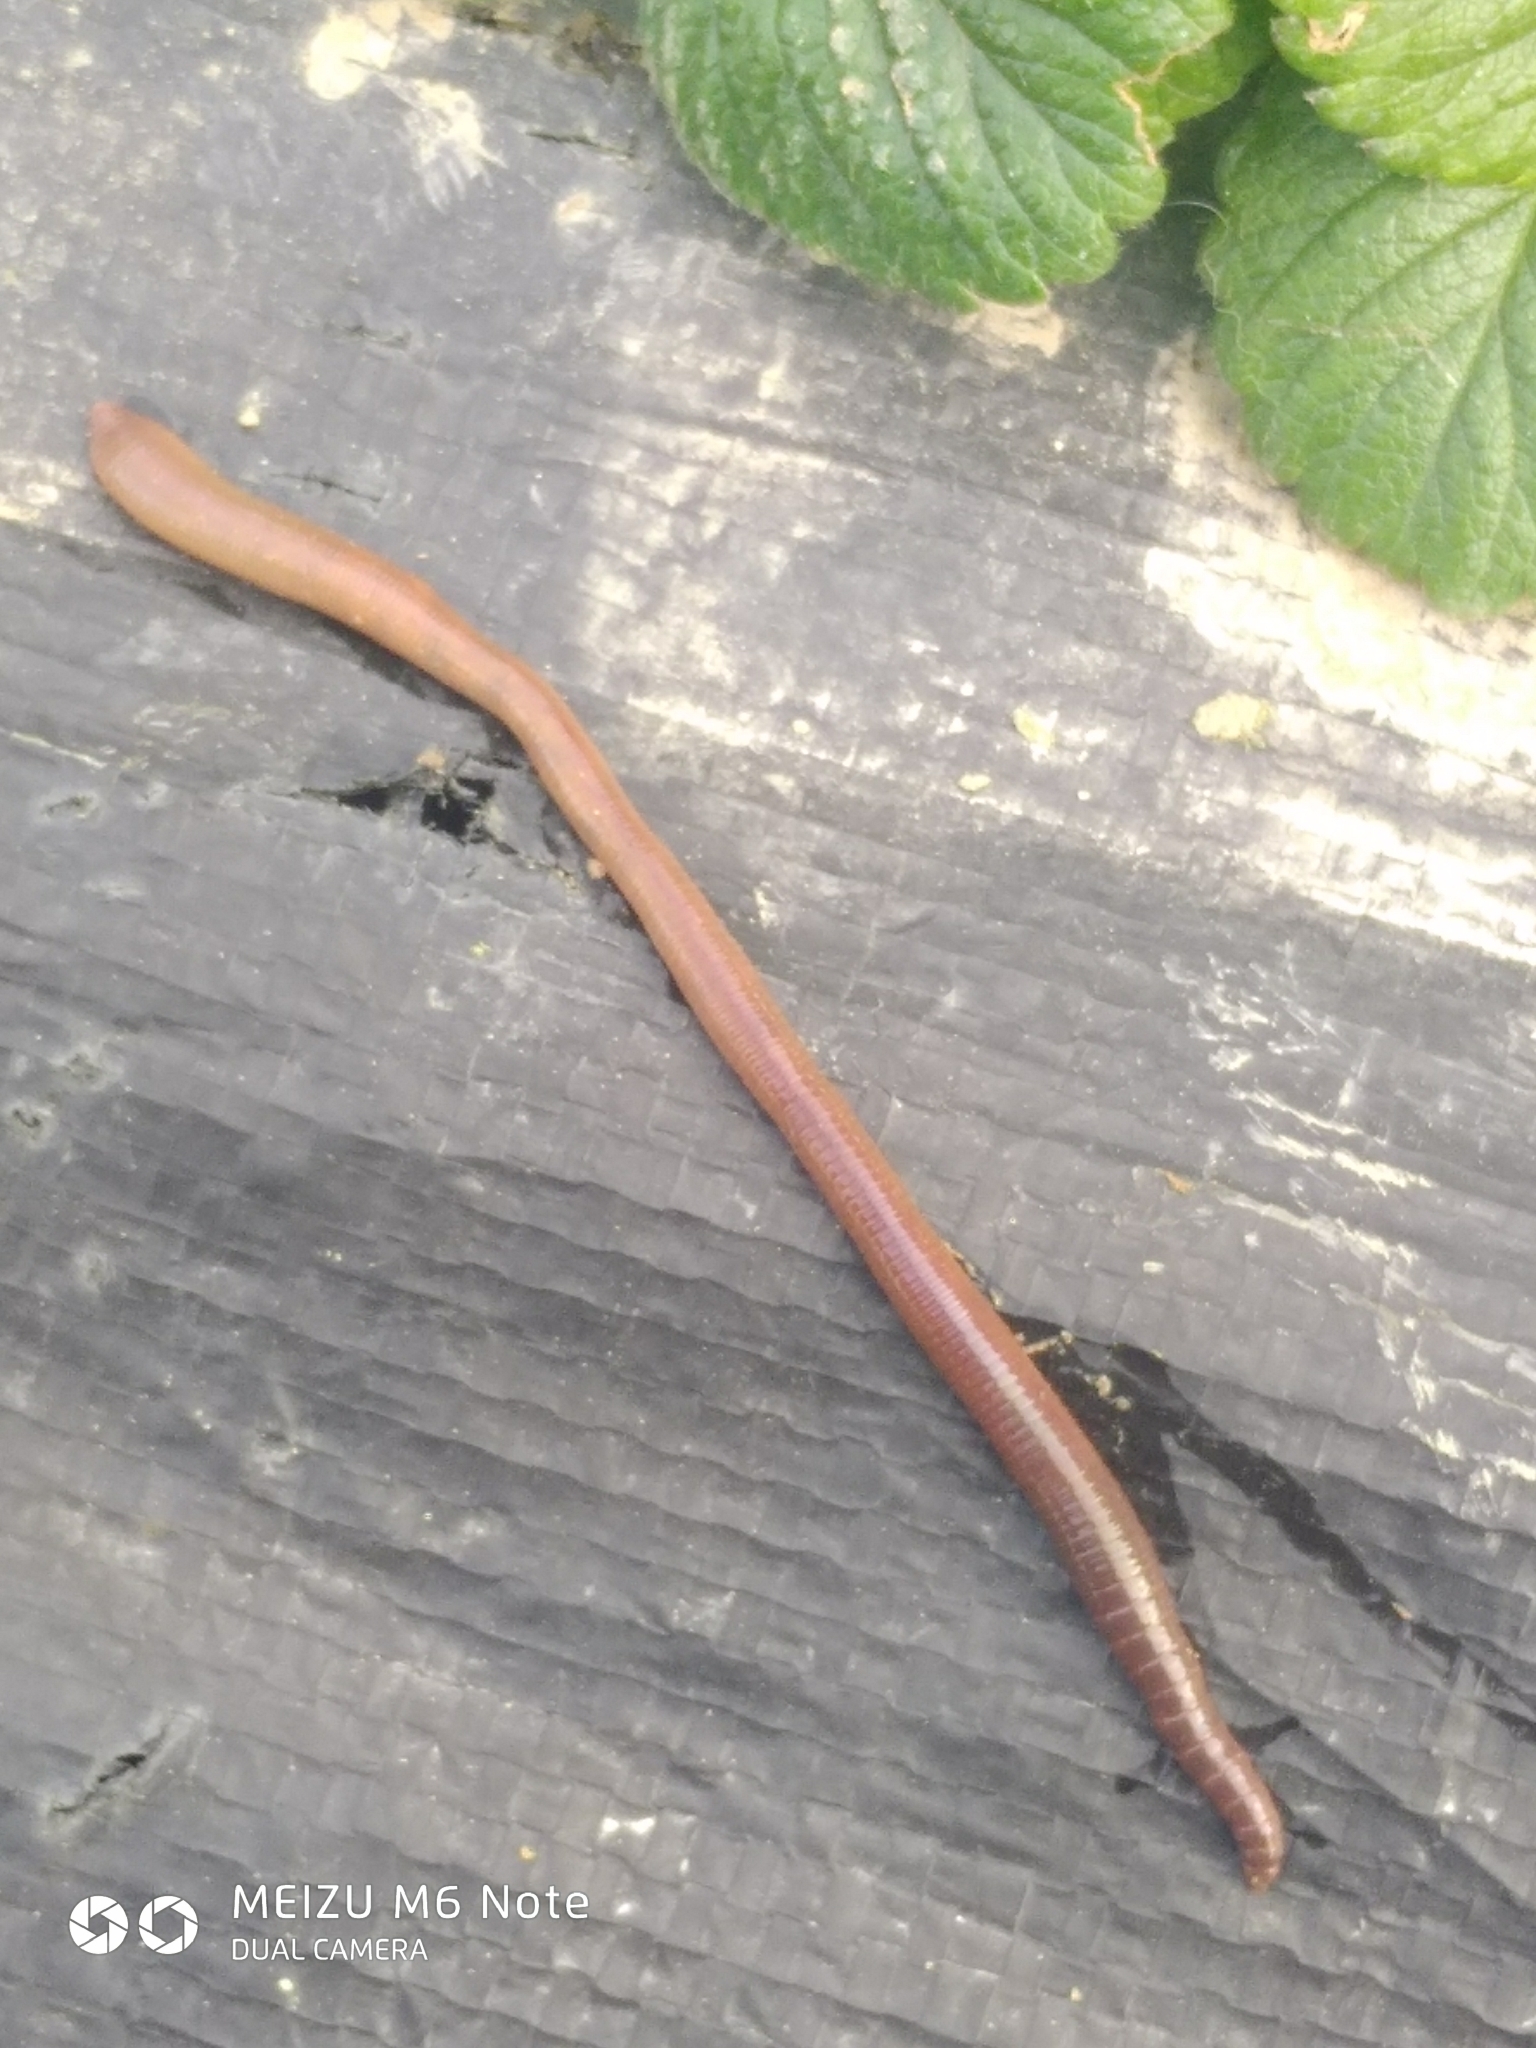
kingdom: Animalia
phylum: Annelida
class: Clitellata
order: Crassiclitellata
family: Lumbricidae
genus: Lumbricus
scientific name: Lumbricus terrestris
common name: Common earthworm
